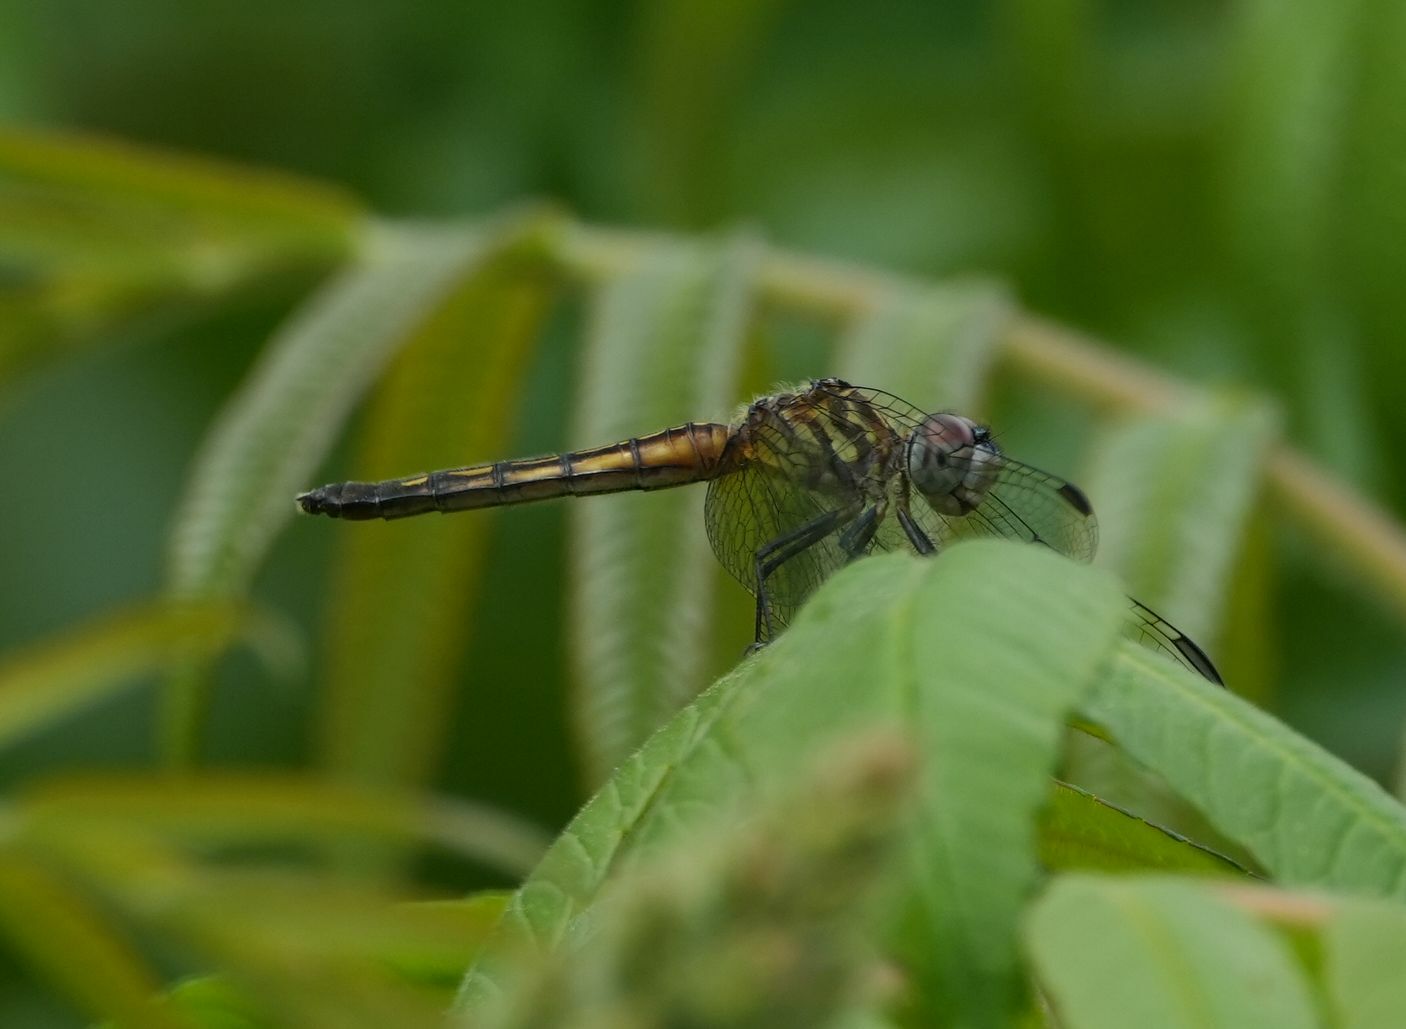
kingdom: Animalia
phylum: Arthropoda
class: Insecta
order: Odonata
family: Libellulidae
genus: Pachydiplax
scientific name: Pachydiplax longipennis
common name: Blue dasher
